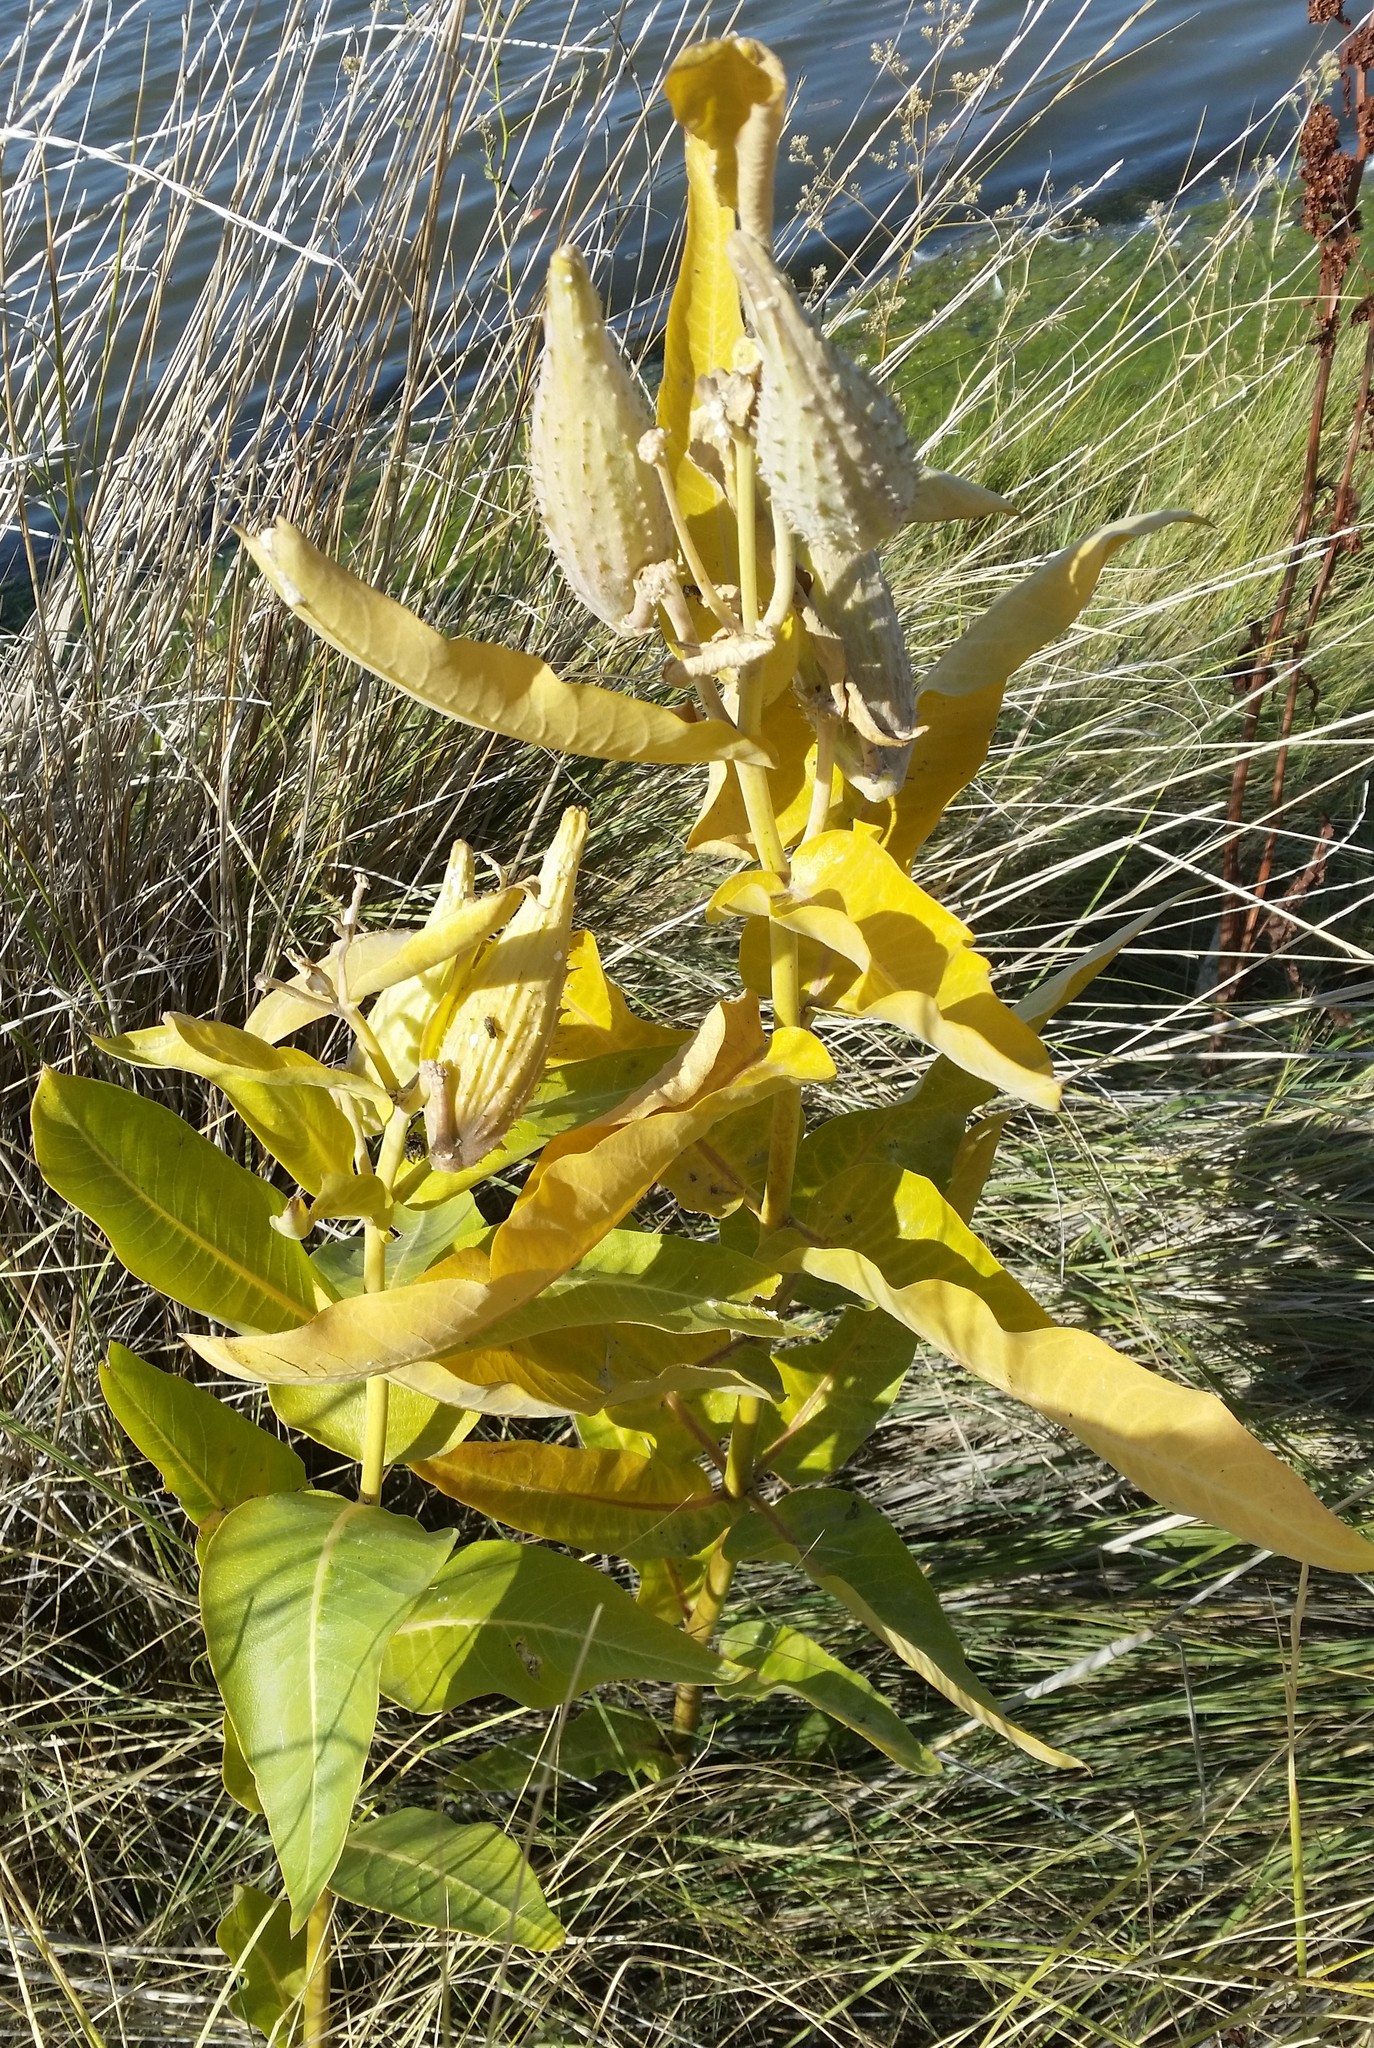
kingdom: Plantae
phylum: Tracheophyta
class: Magnoliopsida
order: Gentianales
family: Apocynaceae
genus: Asclepias
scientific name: Asclepias speciosa
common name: Showy milkweed
